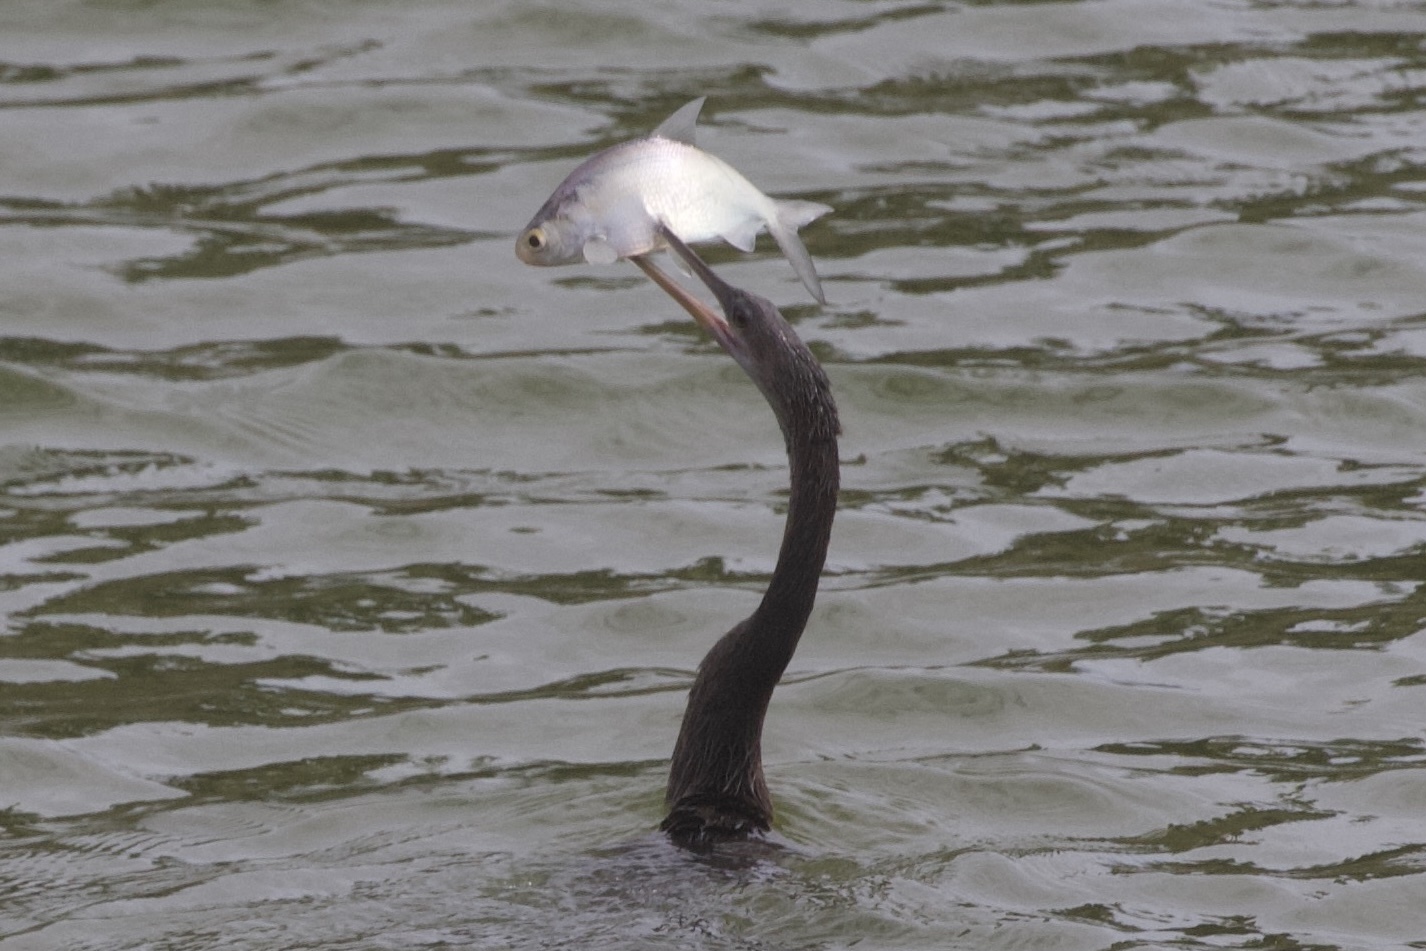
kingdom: Animalia
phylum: Chordata
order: Clupeiformes
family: Clupeidae
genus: Dorosoma
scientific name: Dorosoma cepedianum
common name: Gizzard shad
